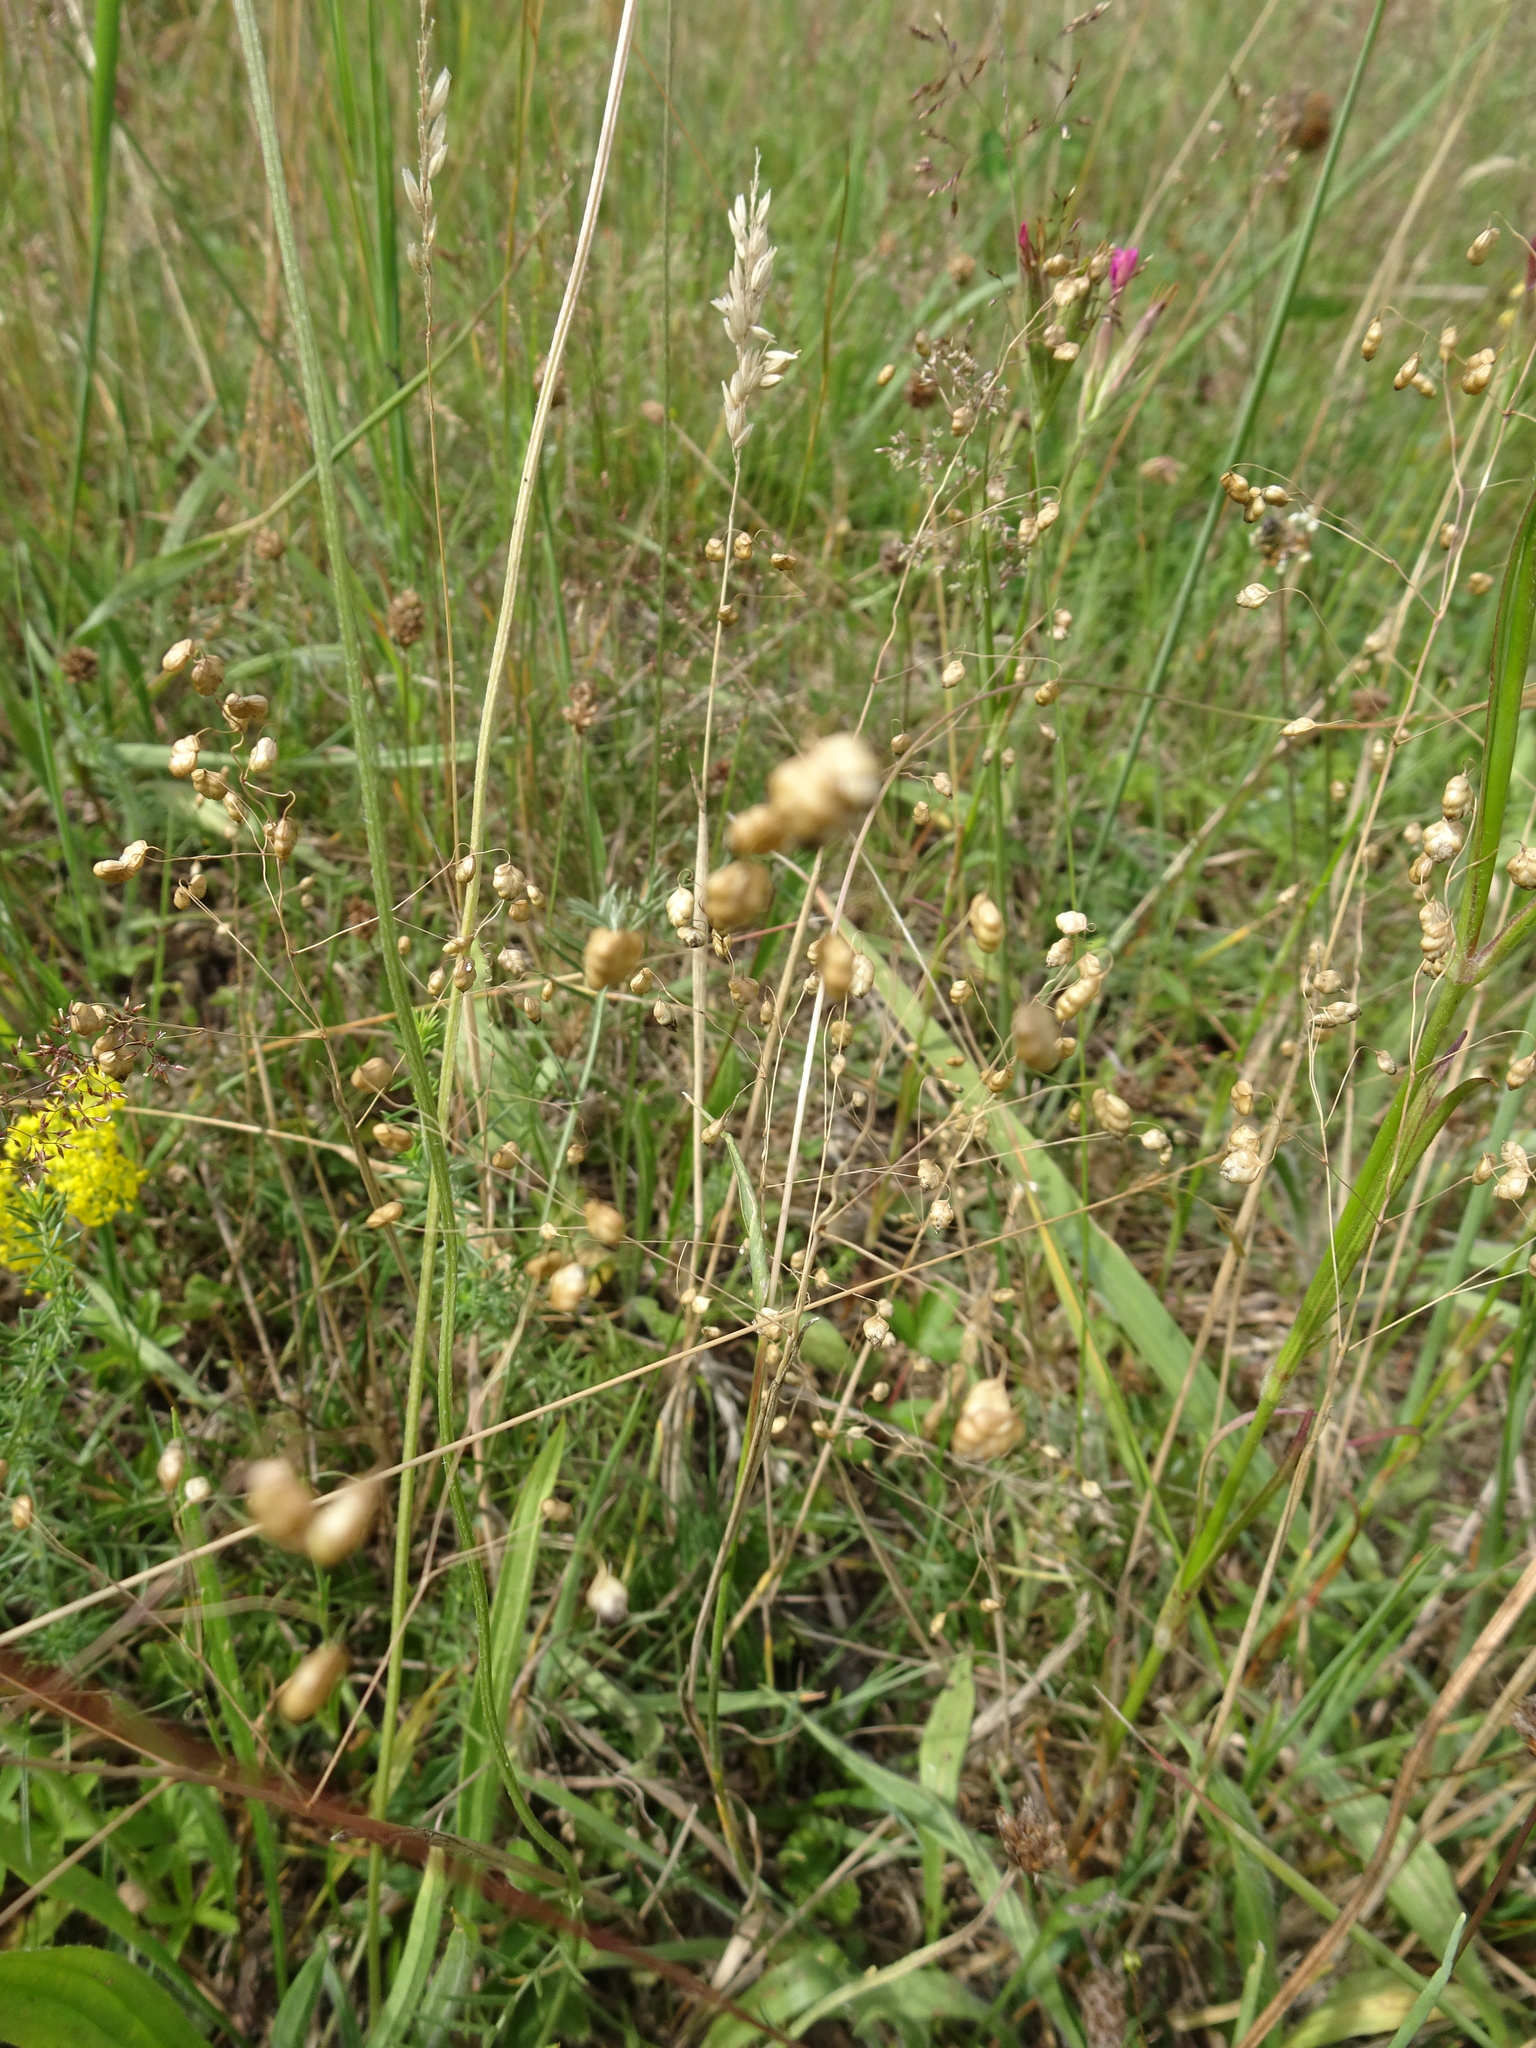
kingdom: Plantae
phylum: Tracheophyta
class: Liliopsida
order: Poales
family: Poaceae
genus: Briza
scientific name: Briza media
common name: Quaking grass
